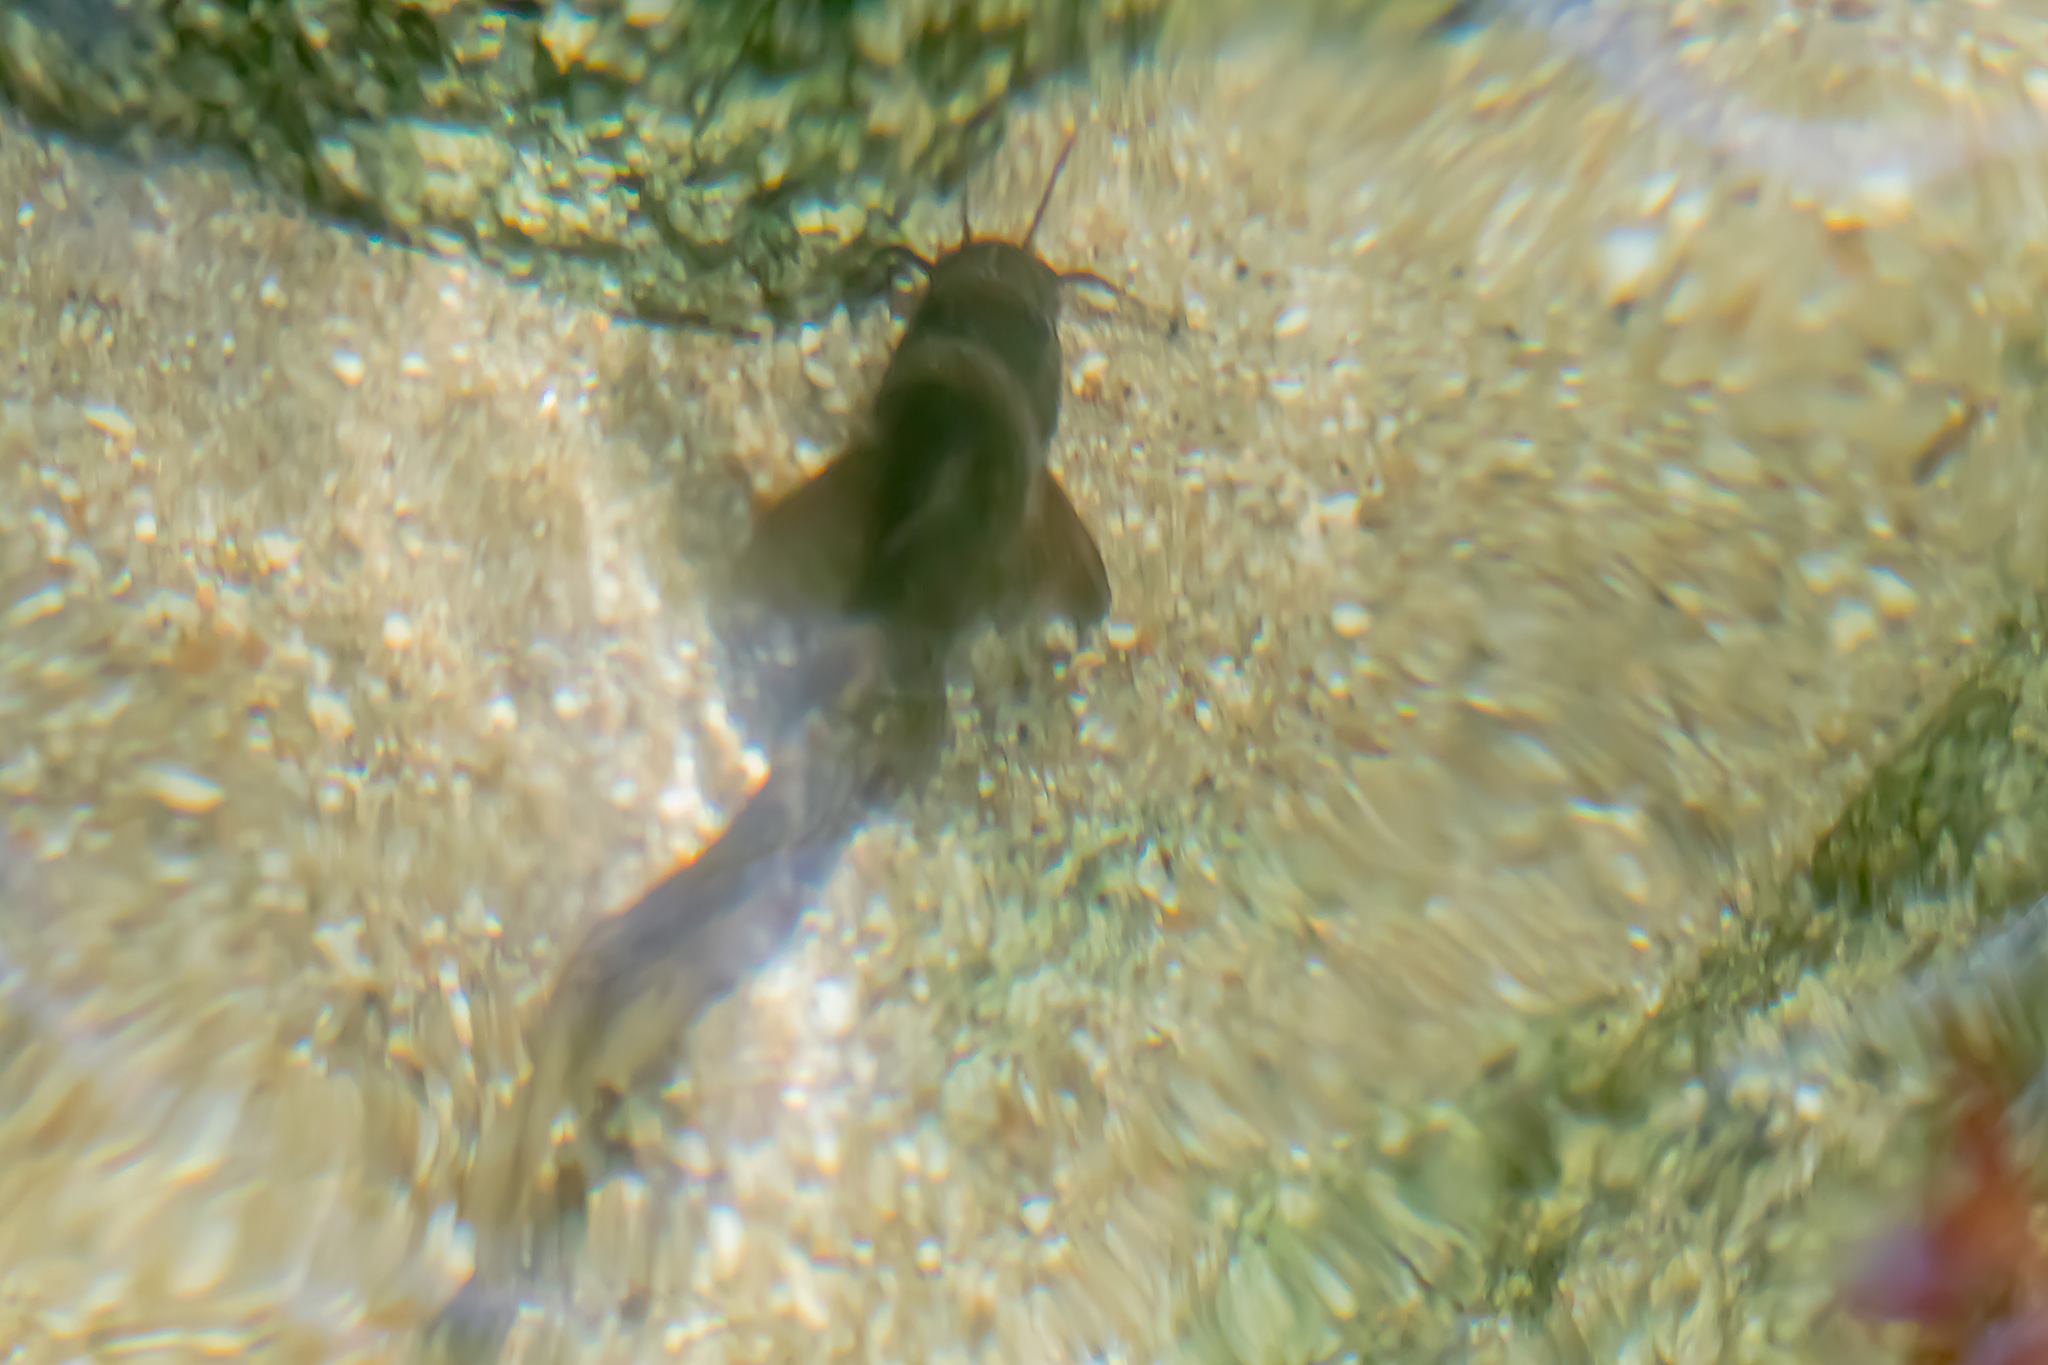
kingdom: Animalia
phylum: Chordata
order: Siluriformes
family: Plotosidae
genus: Tandanus
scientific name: Tandanus tropicanus
